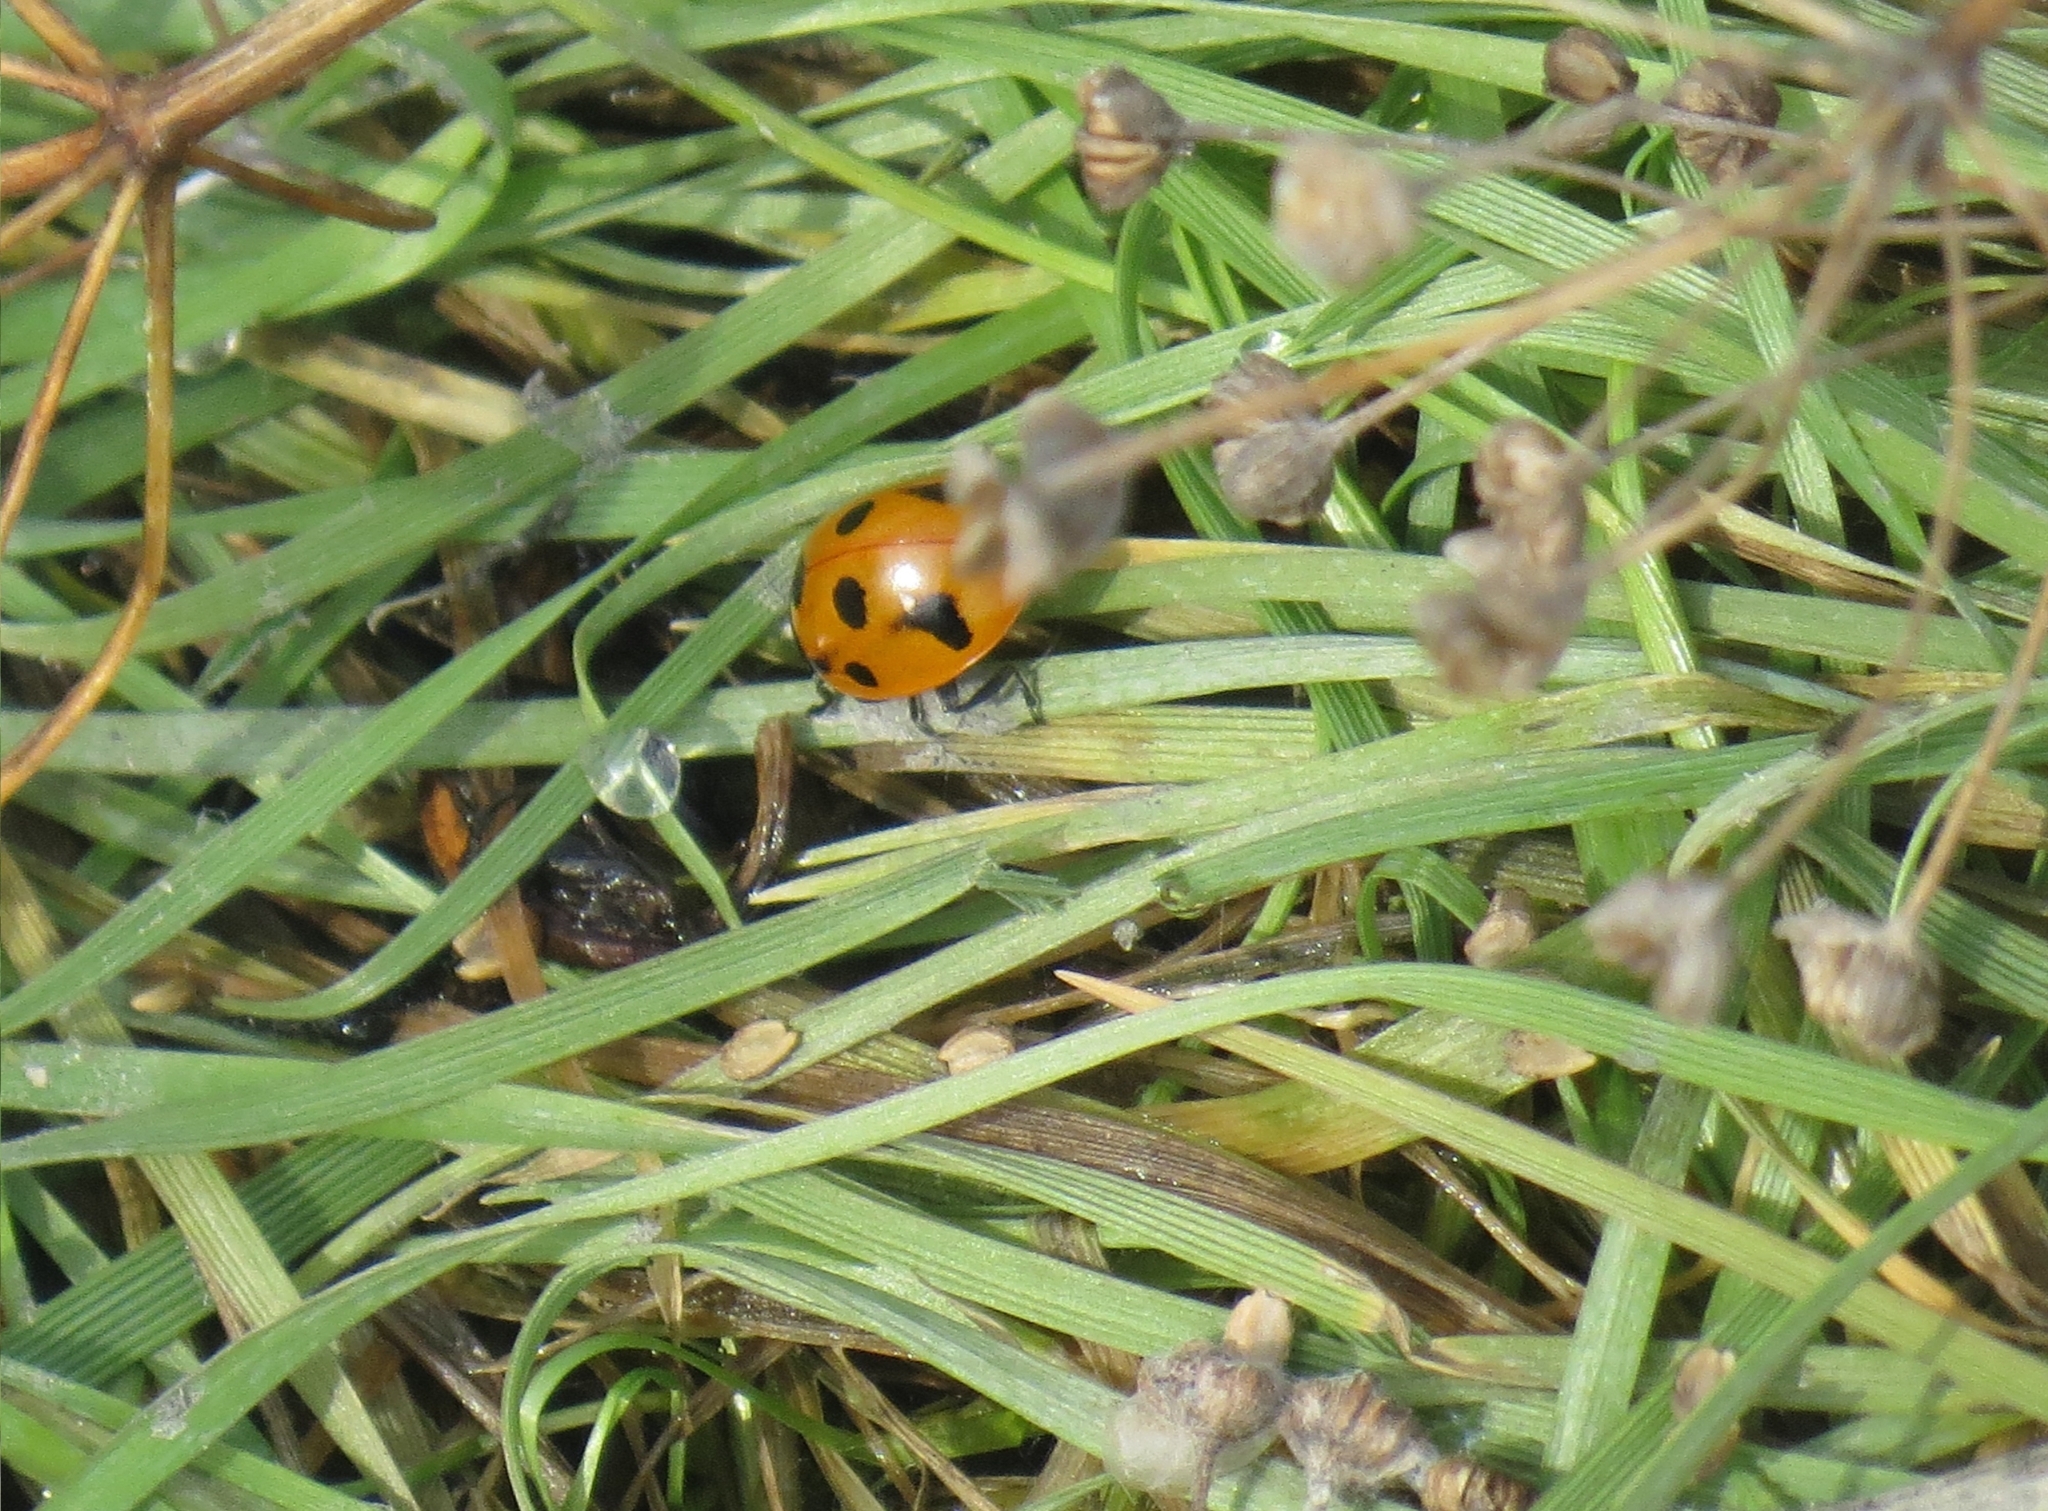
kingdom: Animalia
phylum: Arthropoda
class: Insecta
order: Coleoptera
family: Coccinellidae
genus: Coccinella
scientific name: Coccinella septempunctata
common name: Sevenspotted lady beetle
